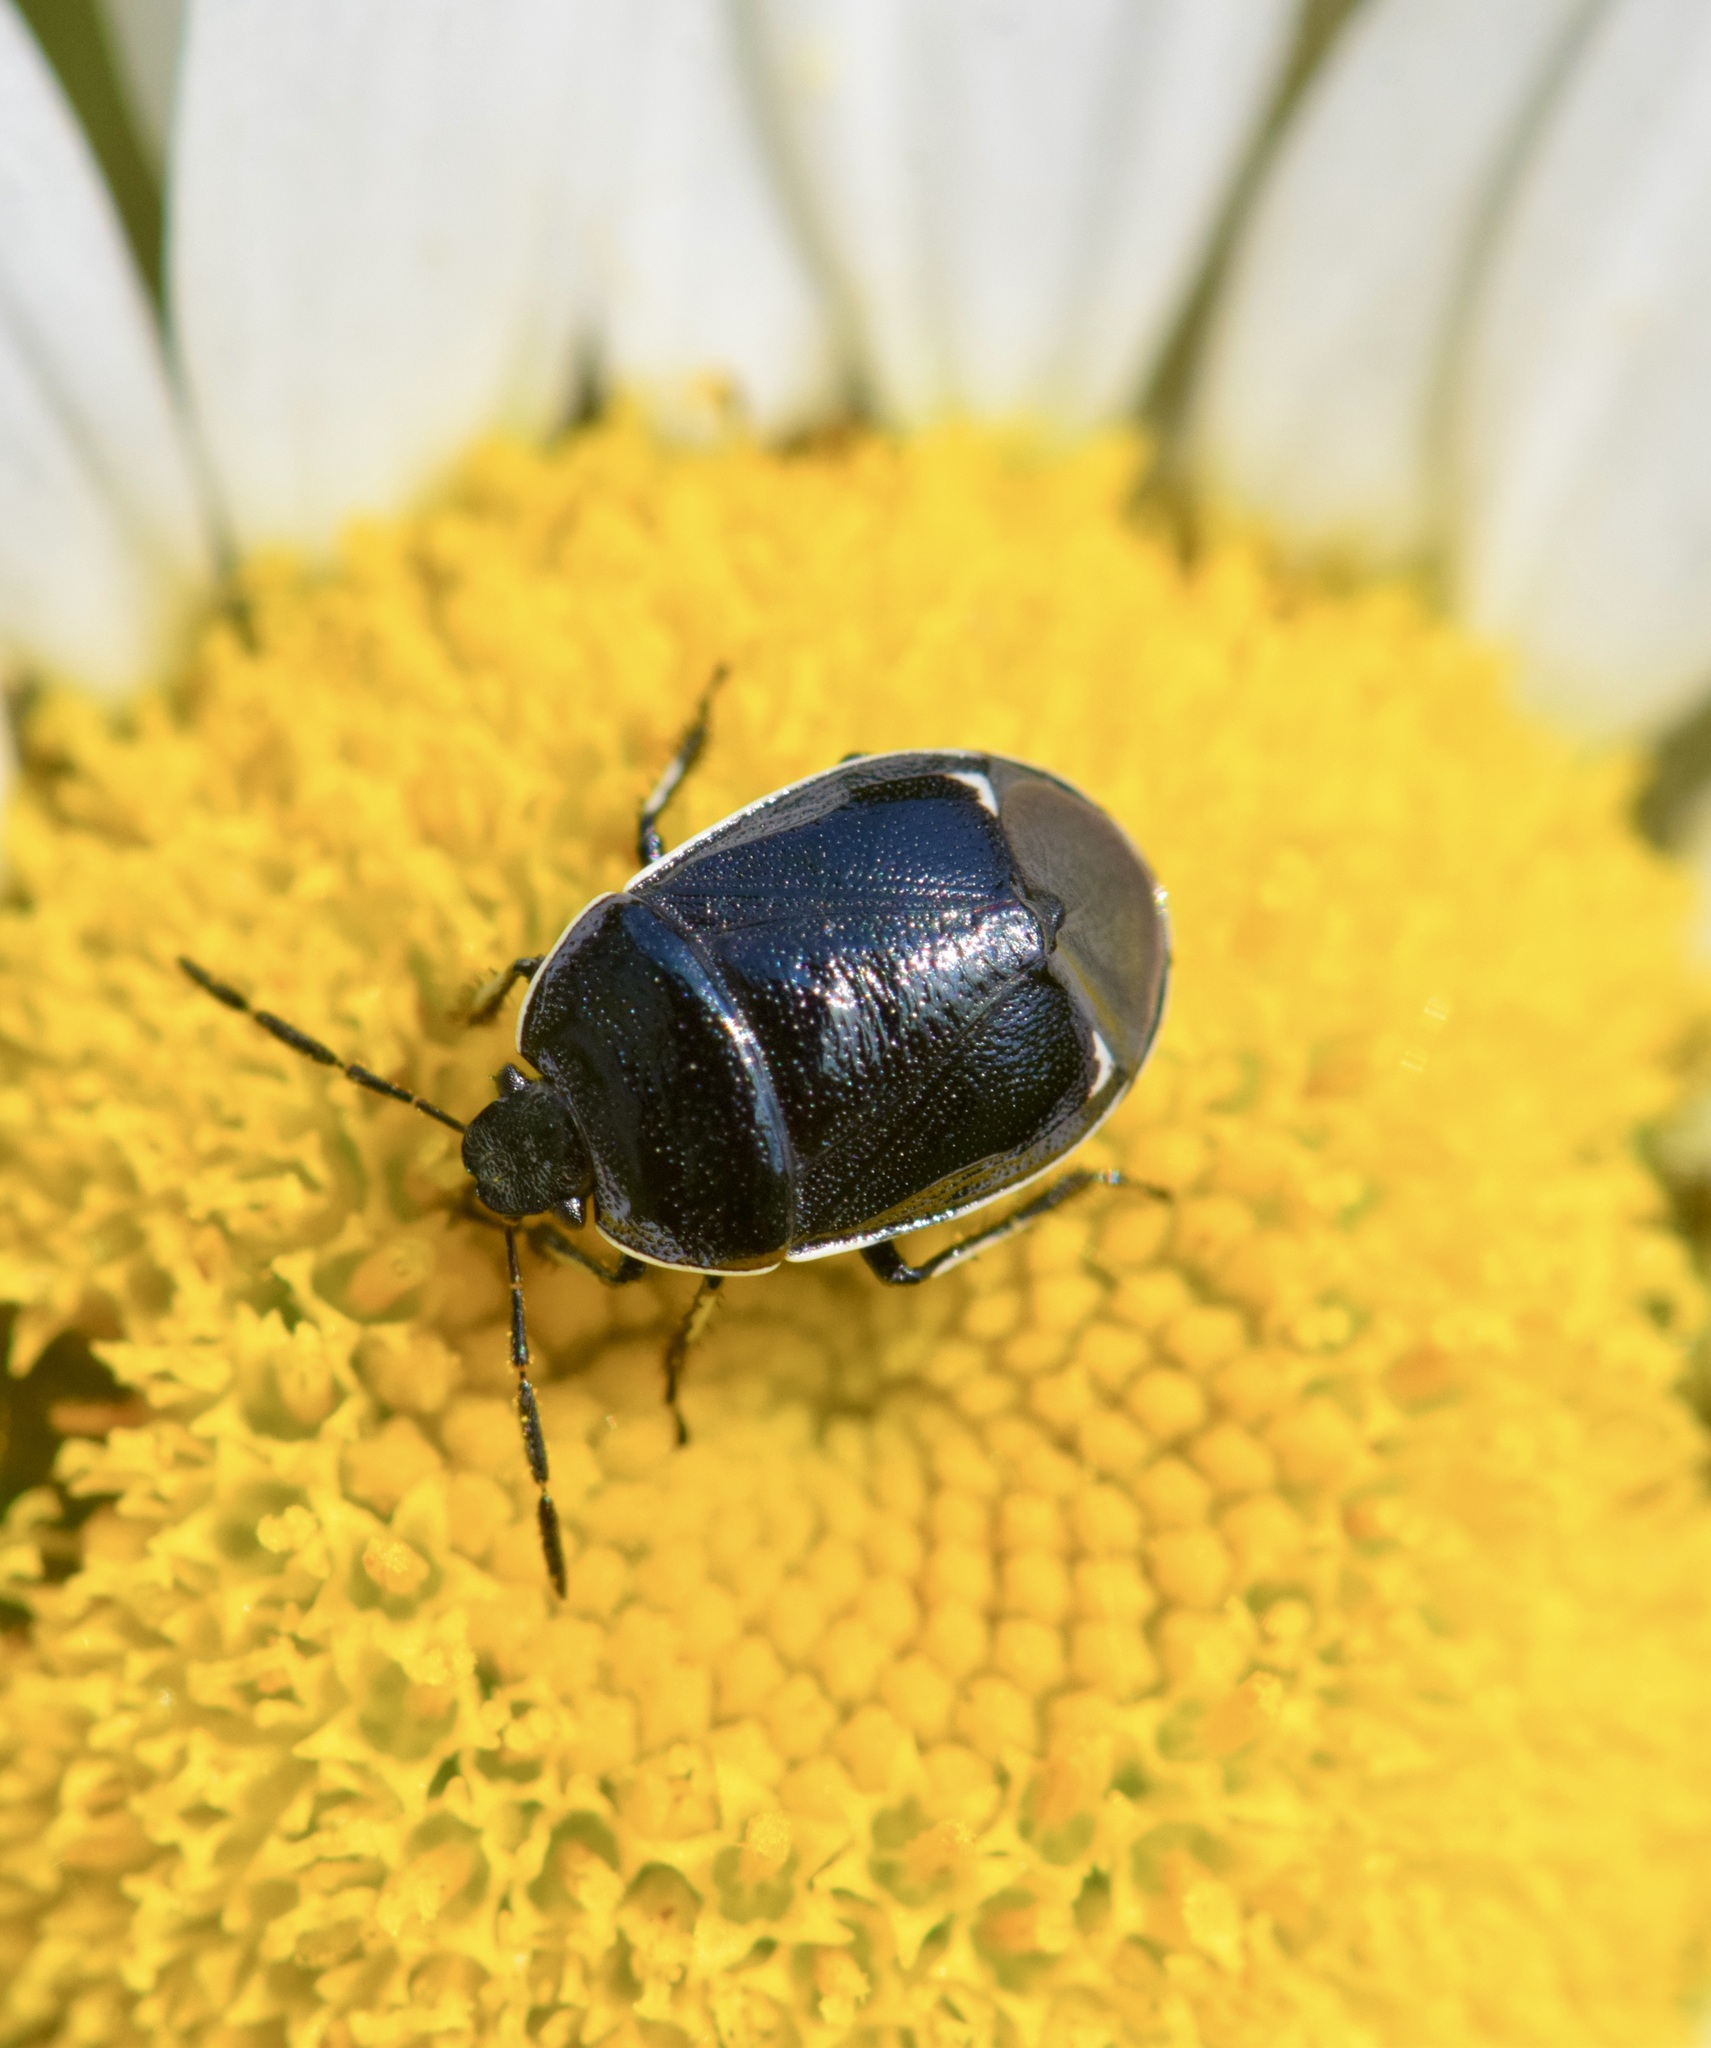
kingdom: Animalia
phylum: Arthropoda
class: Insecta
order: Hemiptera
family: Cydnidae
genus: Sehirus
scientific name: Sehirus cinctus
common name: White-margined burrower bug
